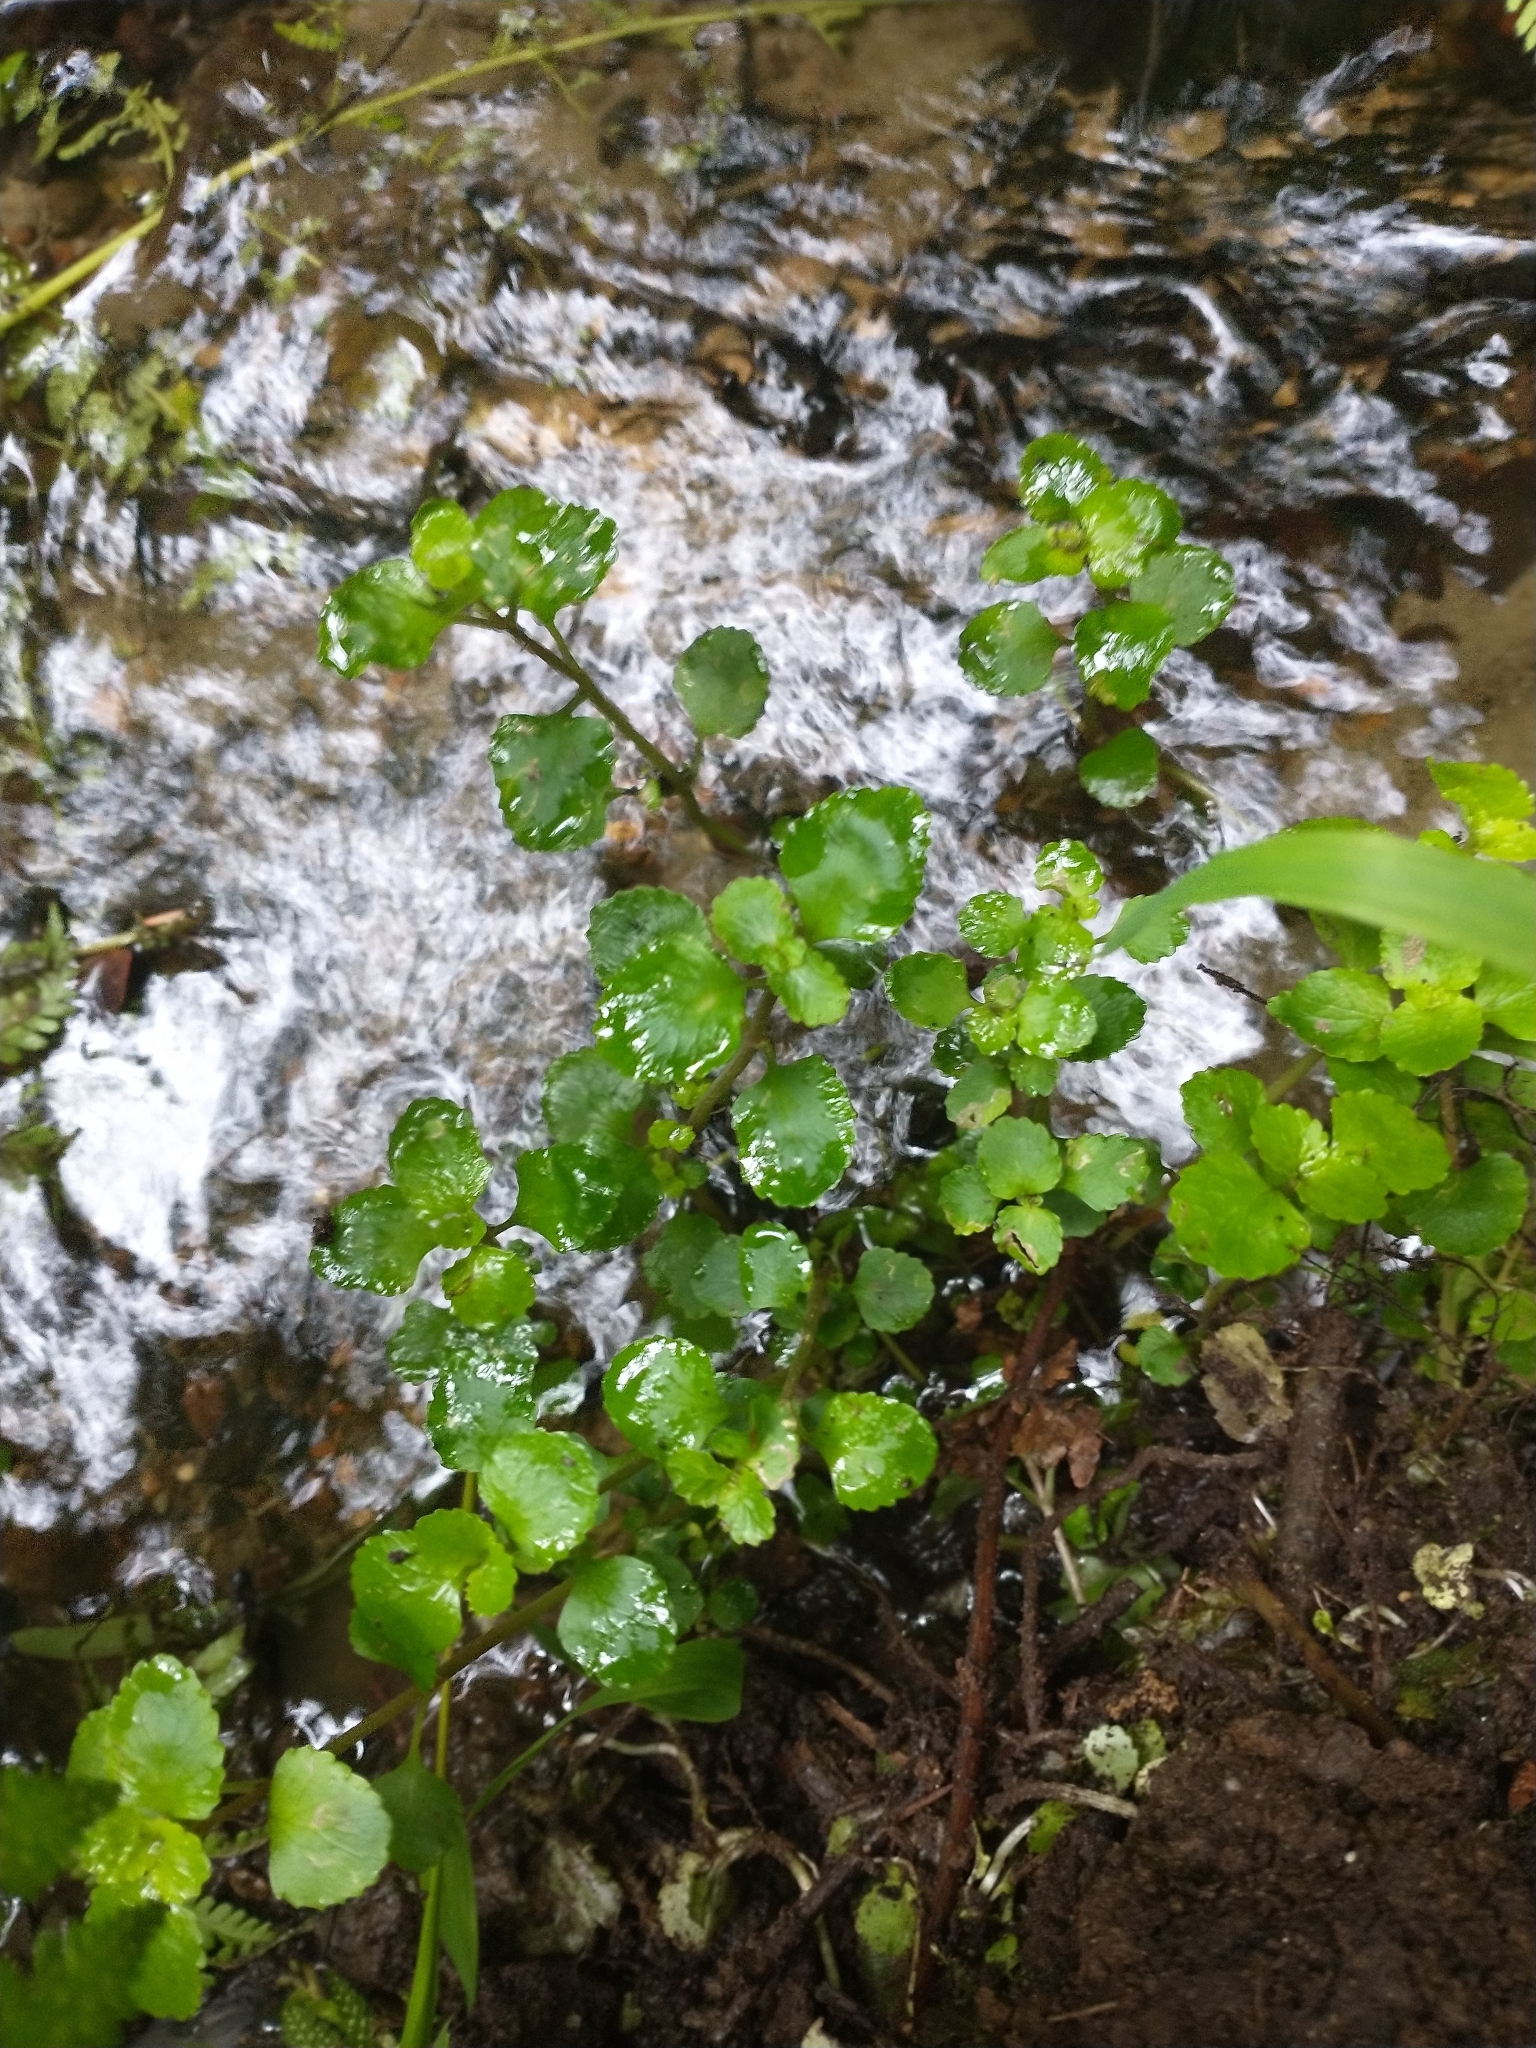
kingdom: Plantae
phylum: Tracheophyta
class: Magnoliopsida
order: Saxifragales
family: Saxifragaceae
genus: Chrysosplenium
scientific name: Chrysosplenium glechomifolium
